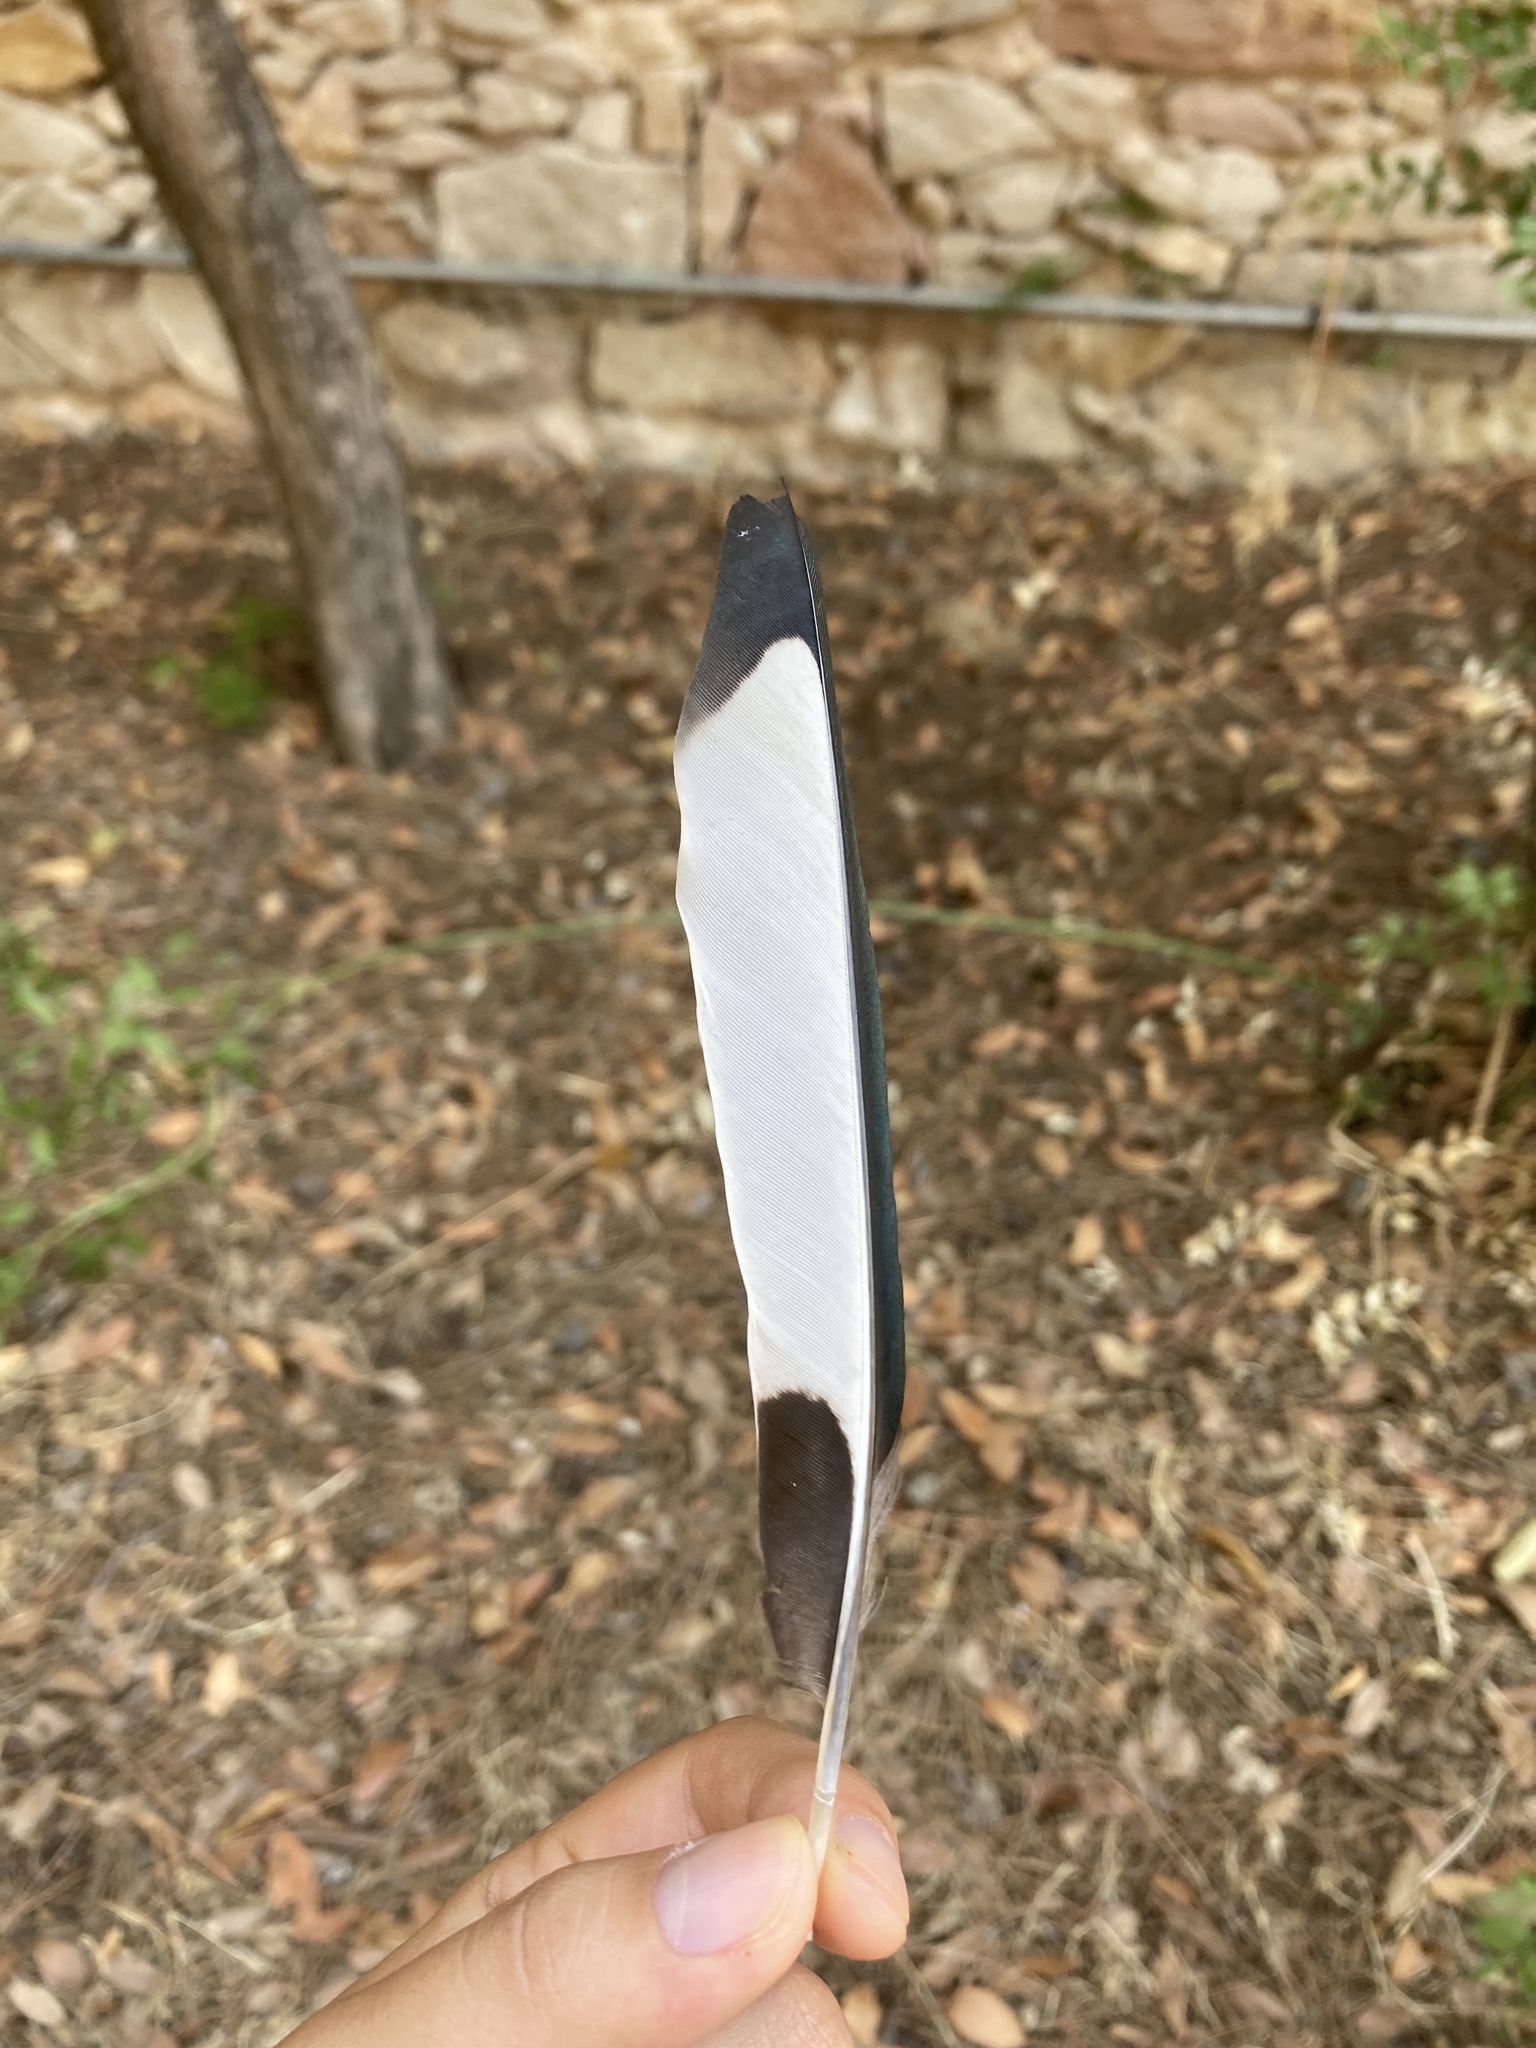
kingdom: Animalia
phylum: Chordata
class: Aves
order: Passeriformes
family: Corvidae
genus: Pica
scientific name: Pica pica
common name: Eurasian magpie
